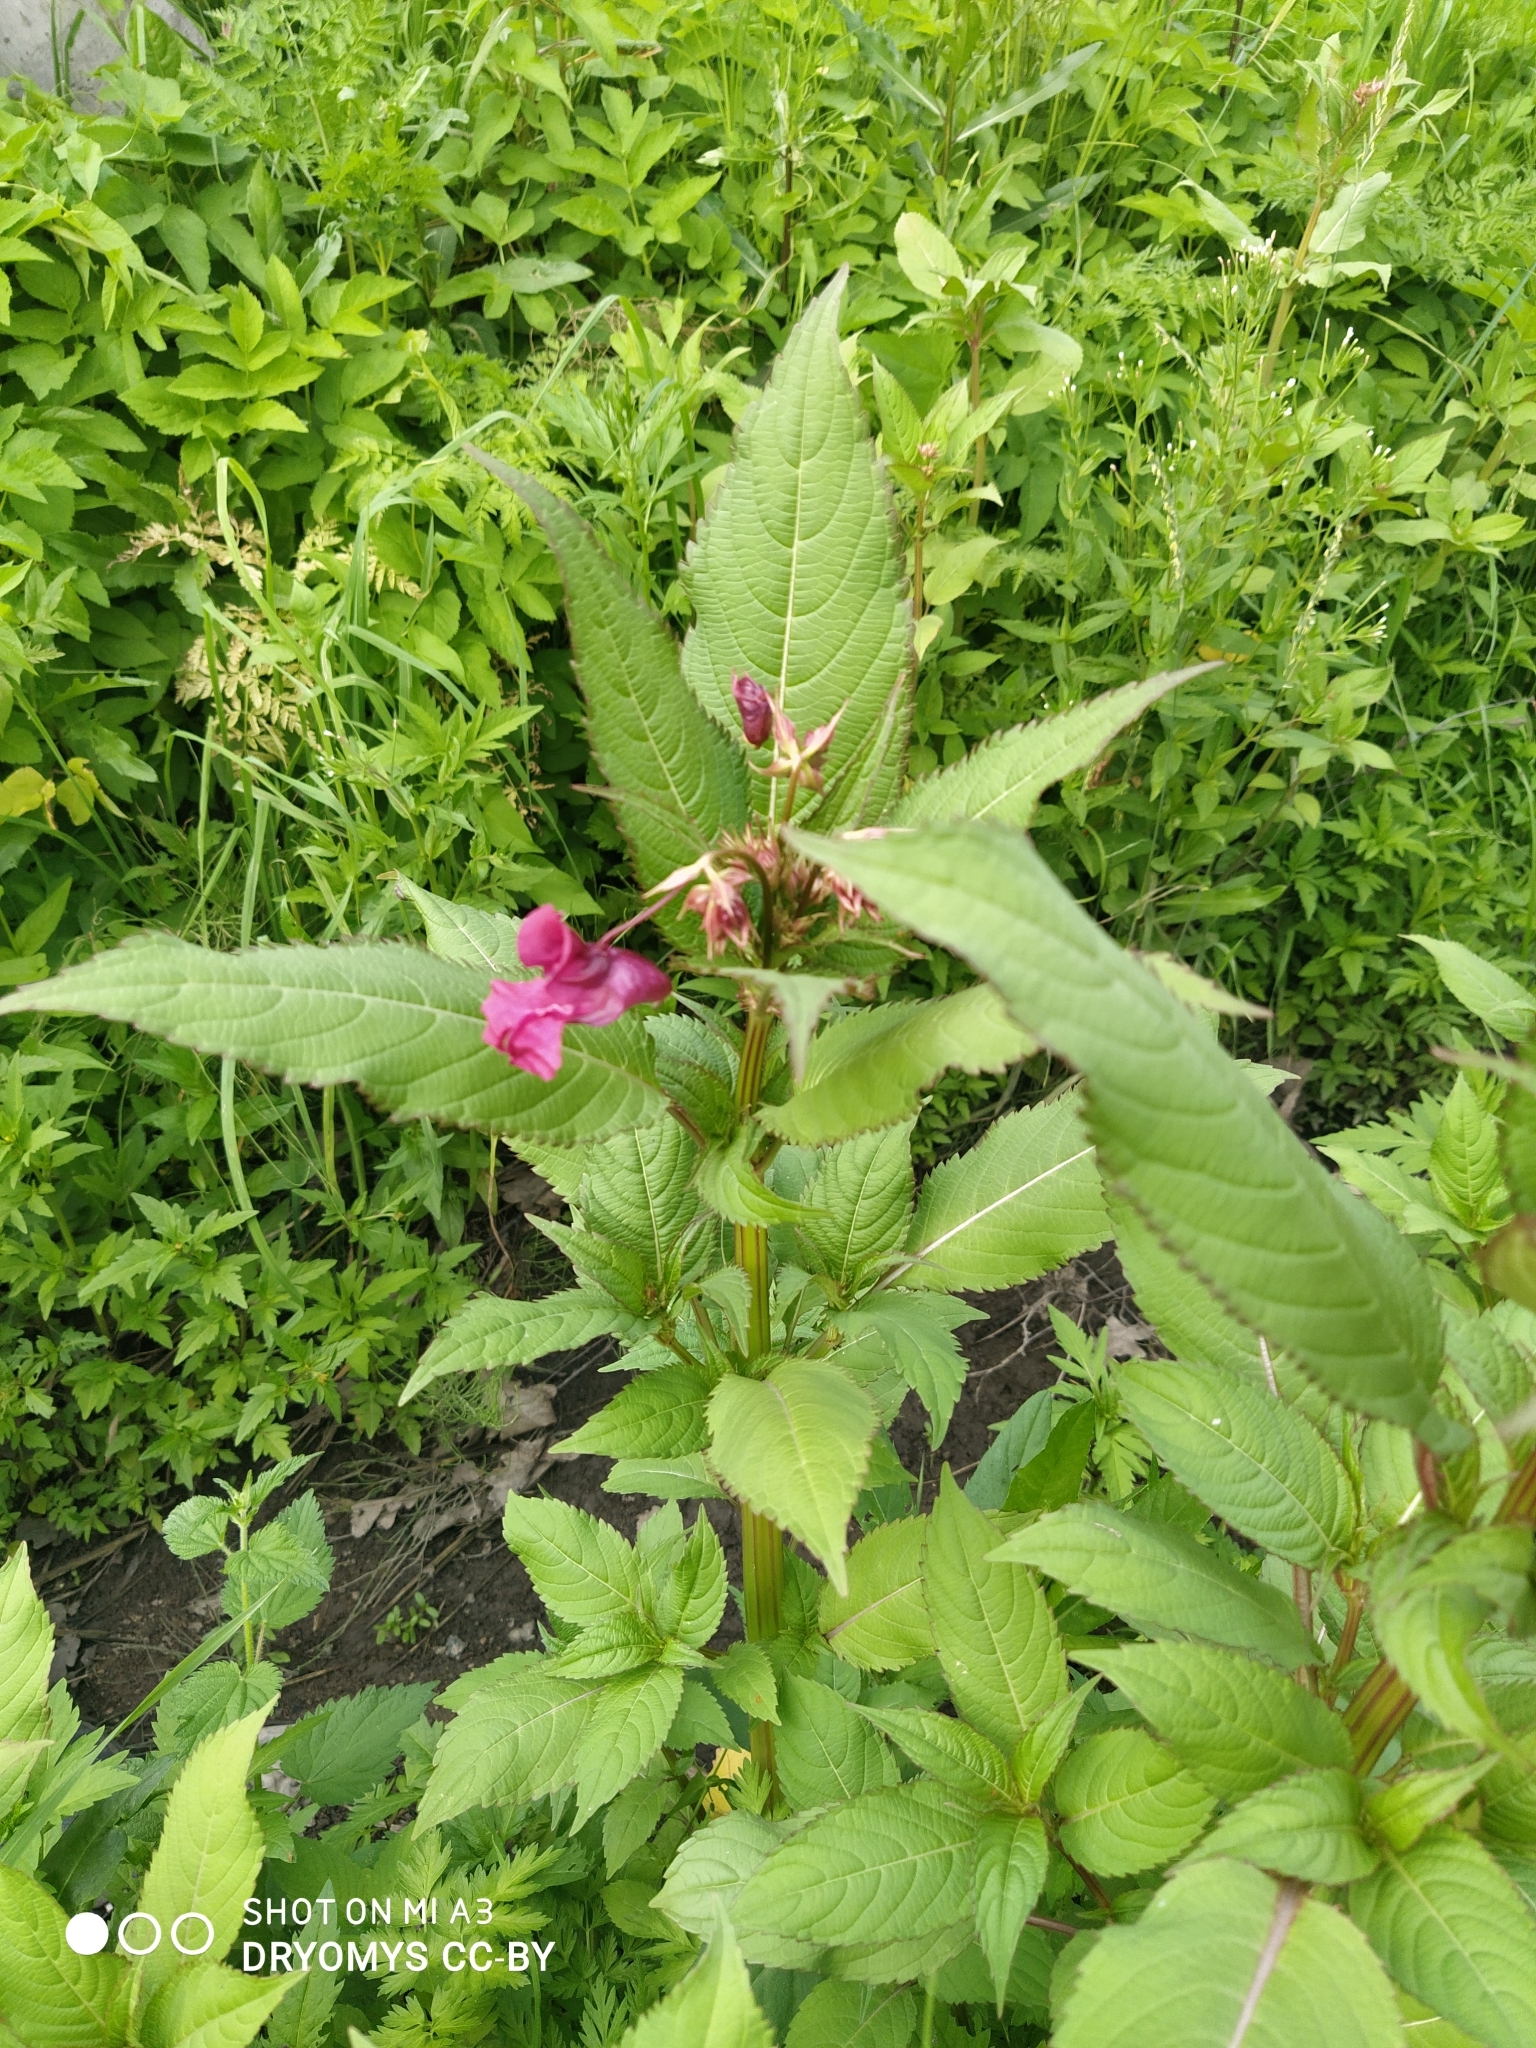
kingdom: Plantae
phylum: Tracheophyta
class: Magnoliopsida
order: Ericales
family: Balsaminaceae
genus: Impatiens
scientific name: Impatiens glandulifera
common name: Himalayan balsam
